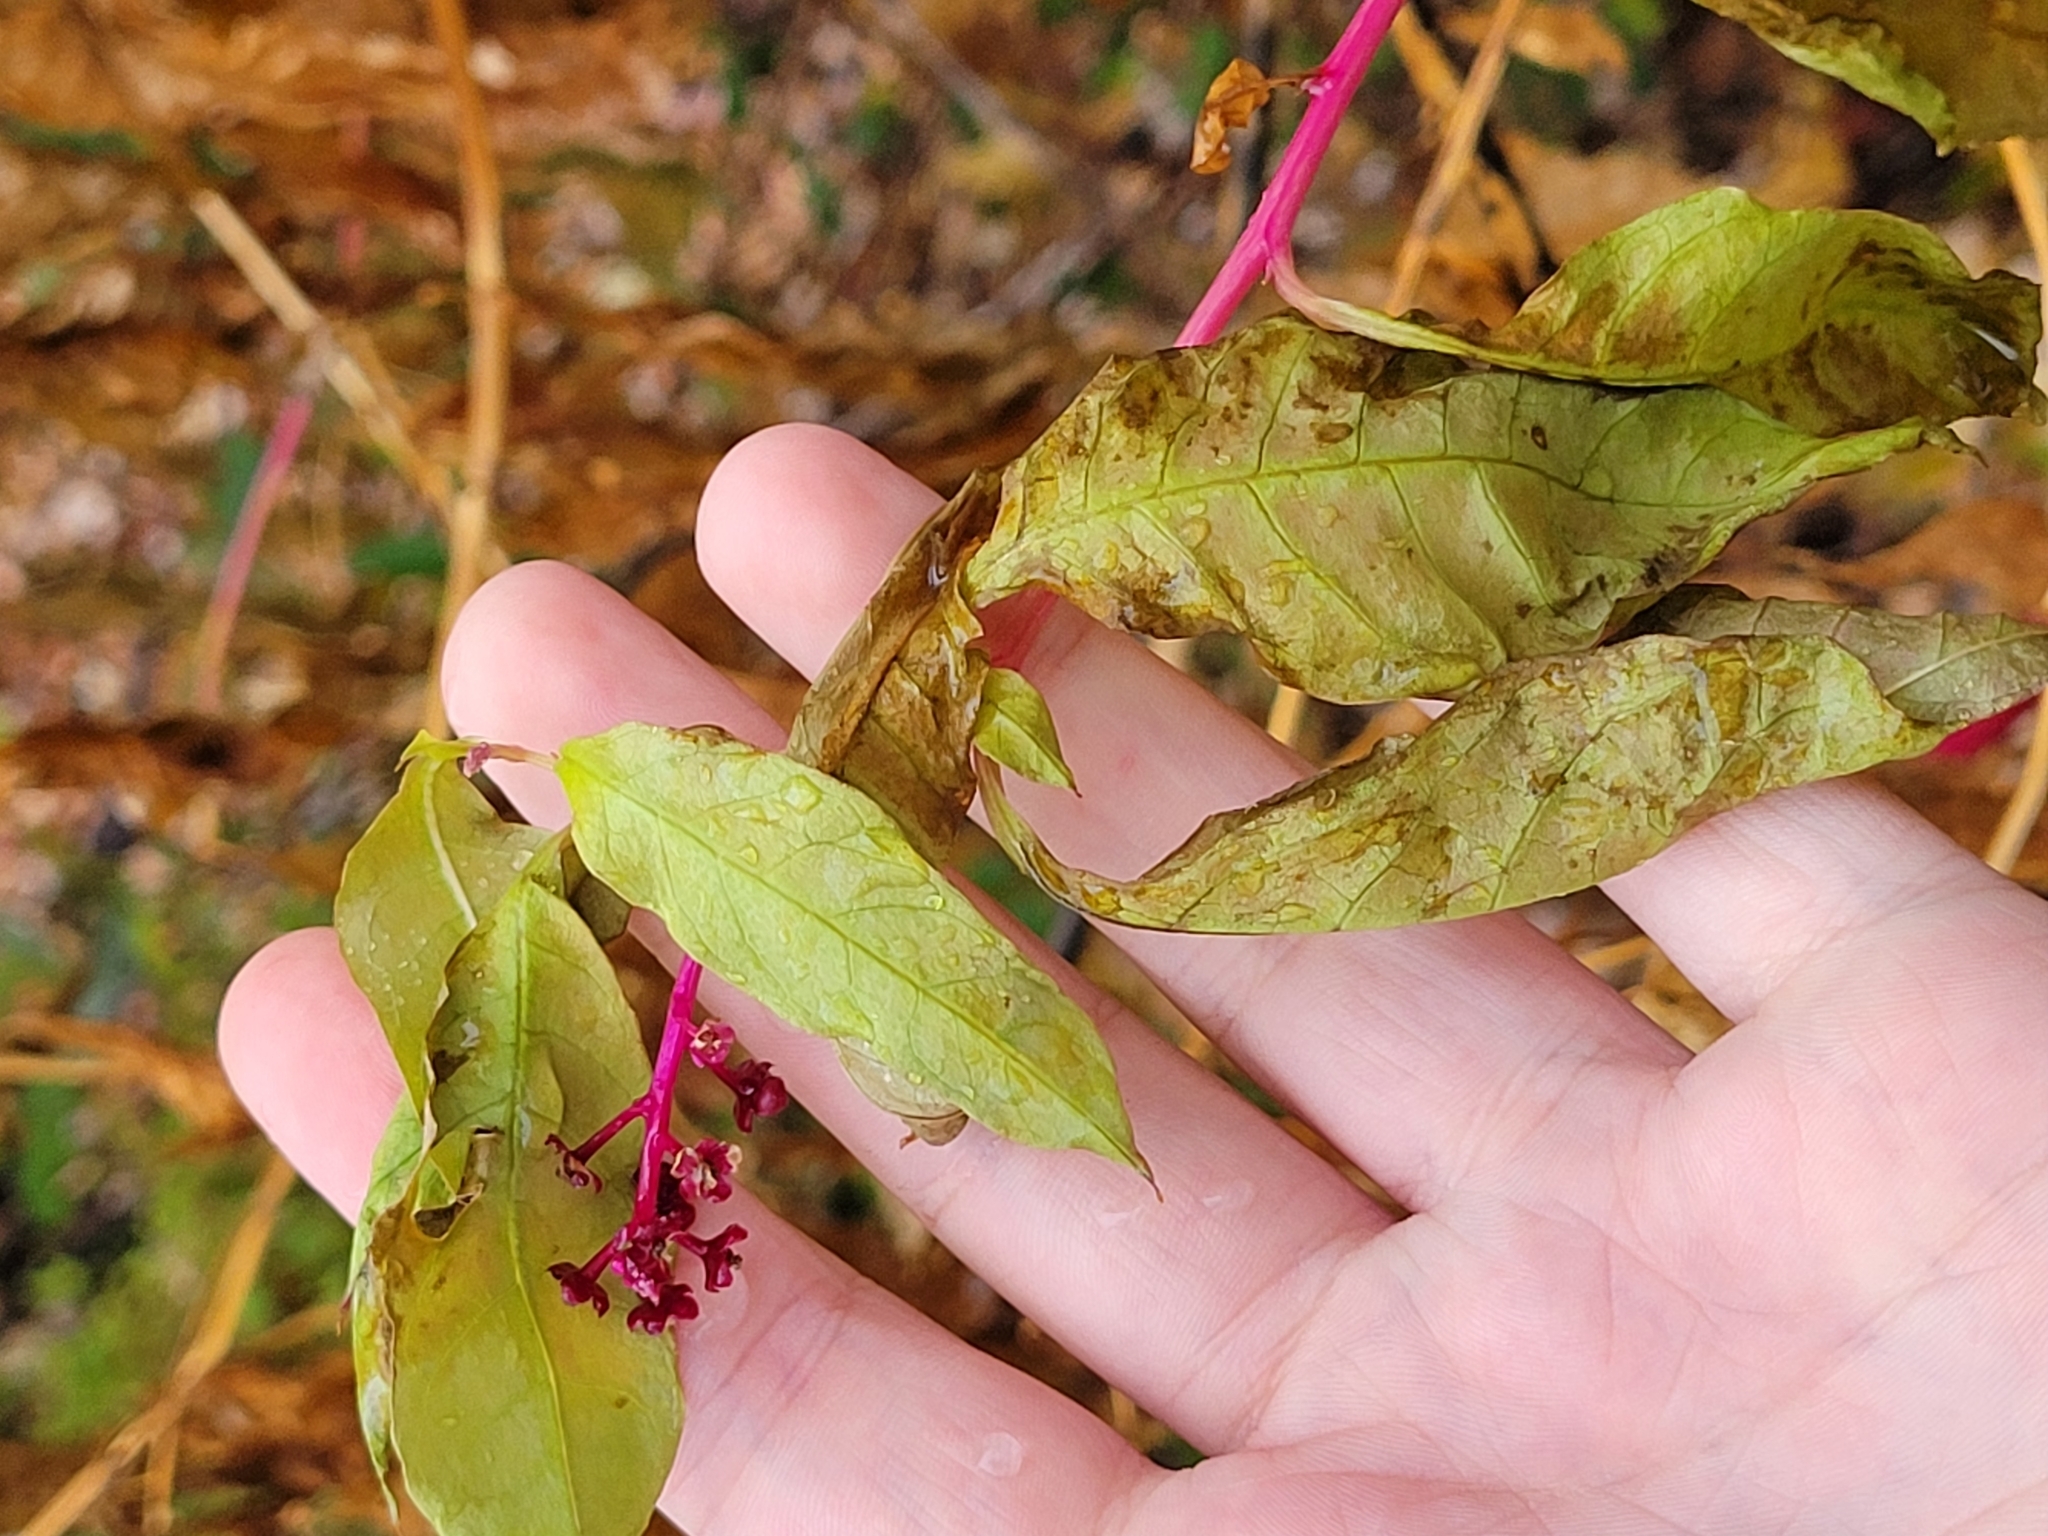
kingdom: Plantae
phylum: Tracheophyta
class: Magnoliopsida
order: Caryophyllales
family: Phytolaccaceae
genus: Phytolacca
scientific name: Phytolacca americana
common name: American pokeweed
